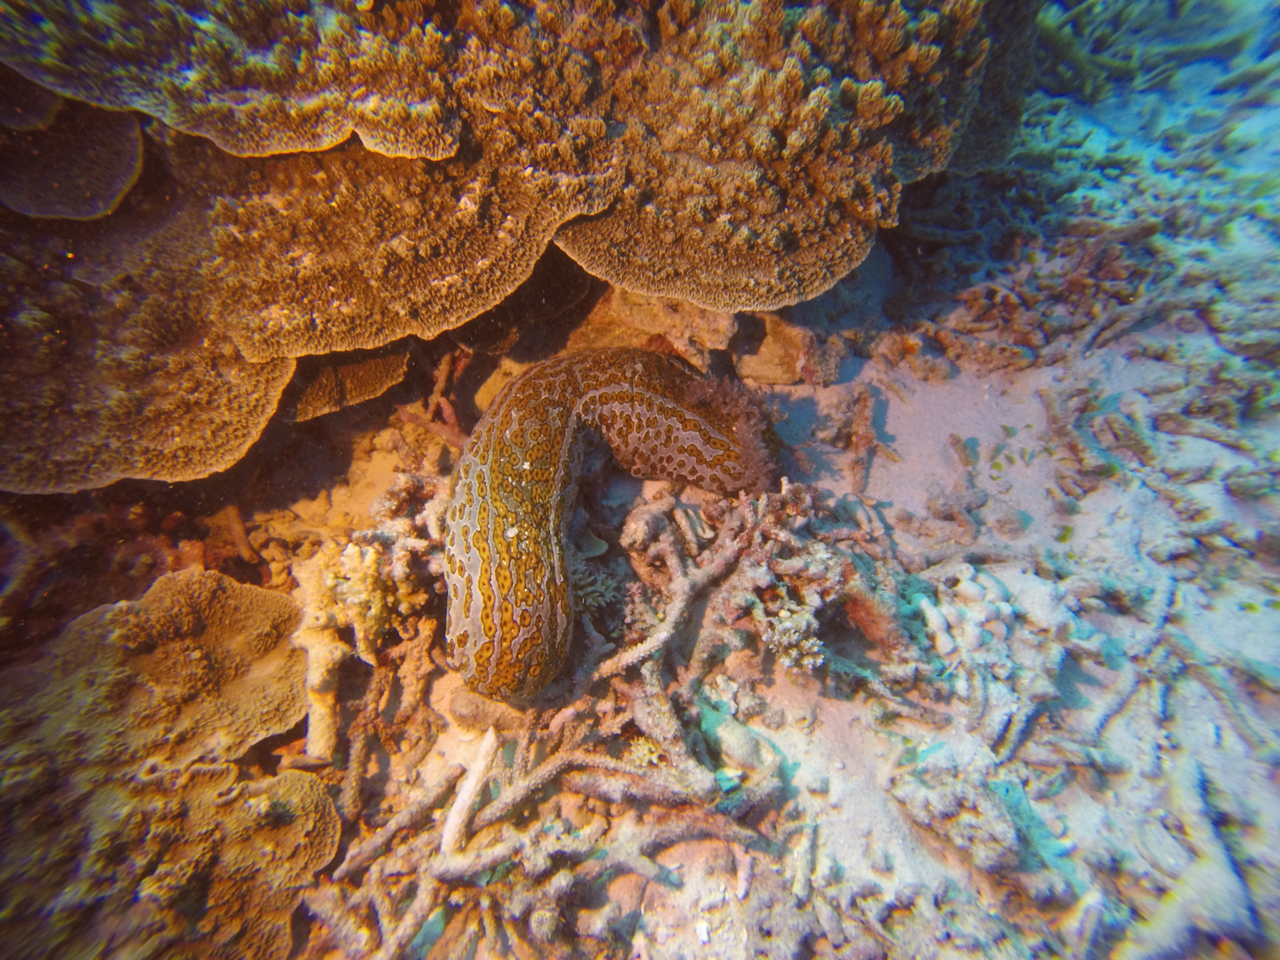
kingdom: Animalia
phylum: Echinodermata
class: Holothuroidea
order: Holothuriida
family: Holothuriidae
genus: Bohadschia
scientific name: Bohadschia argus
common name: Leopardfish
